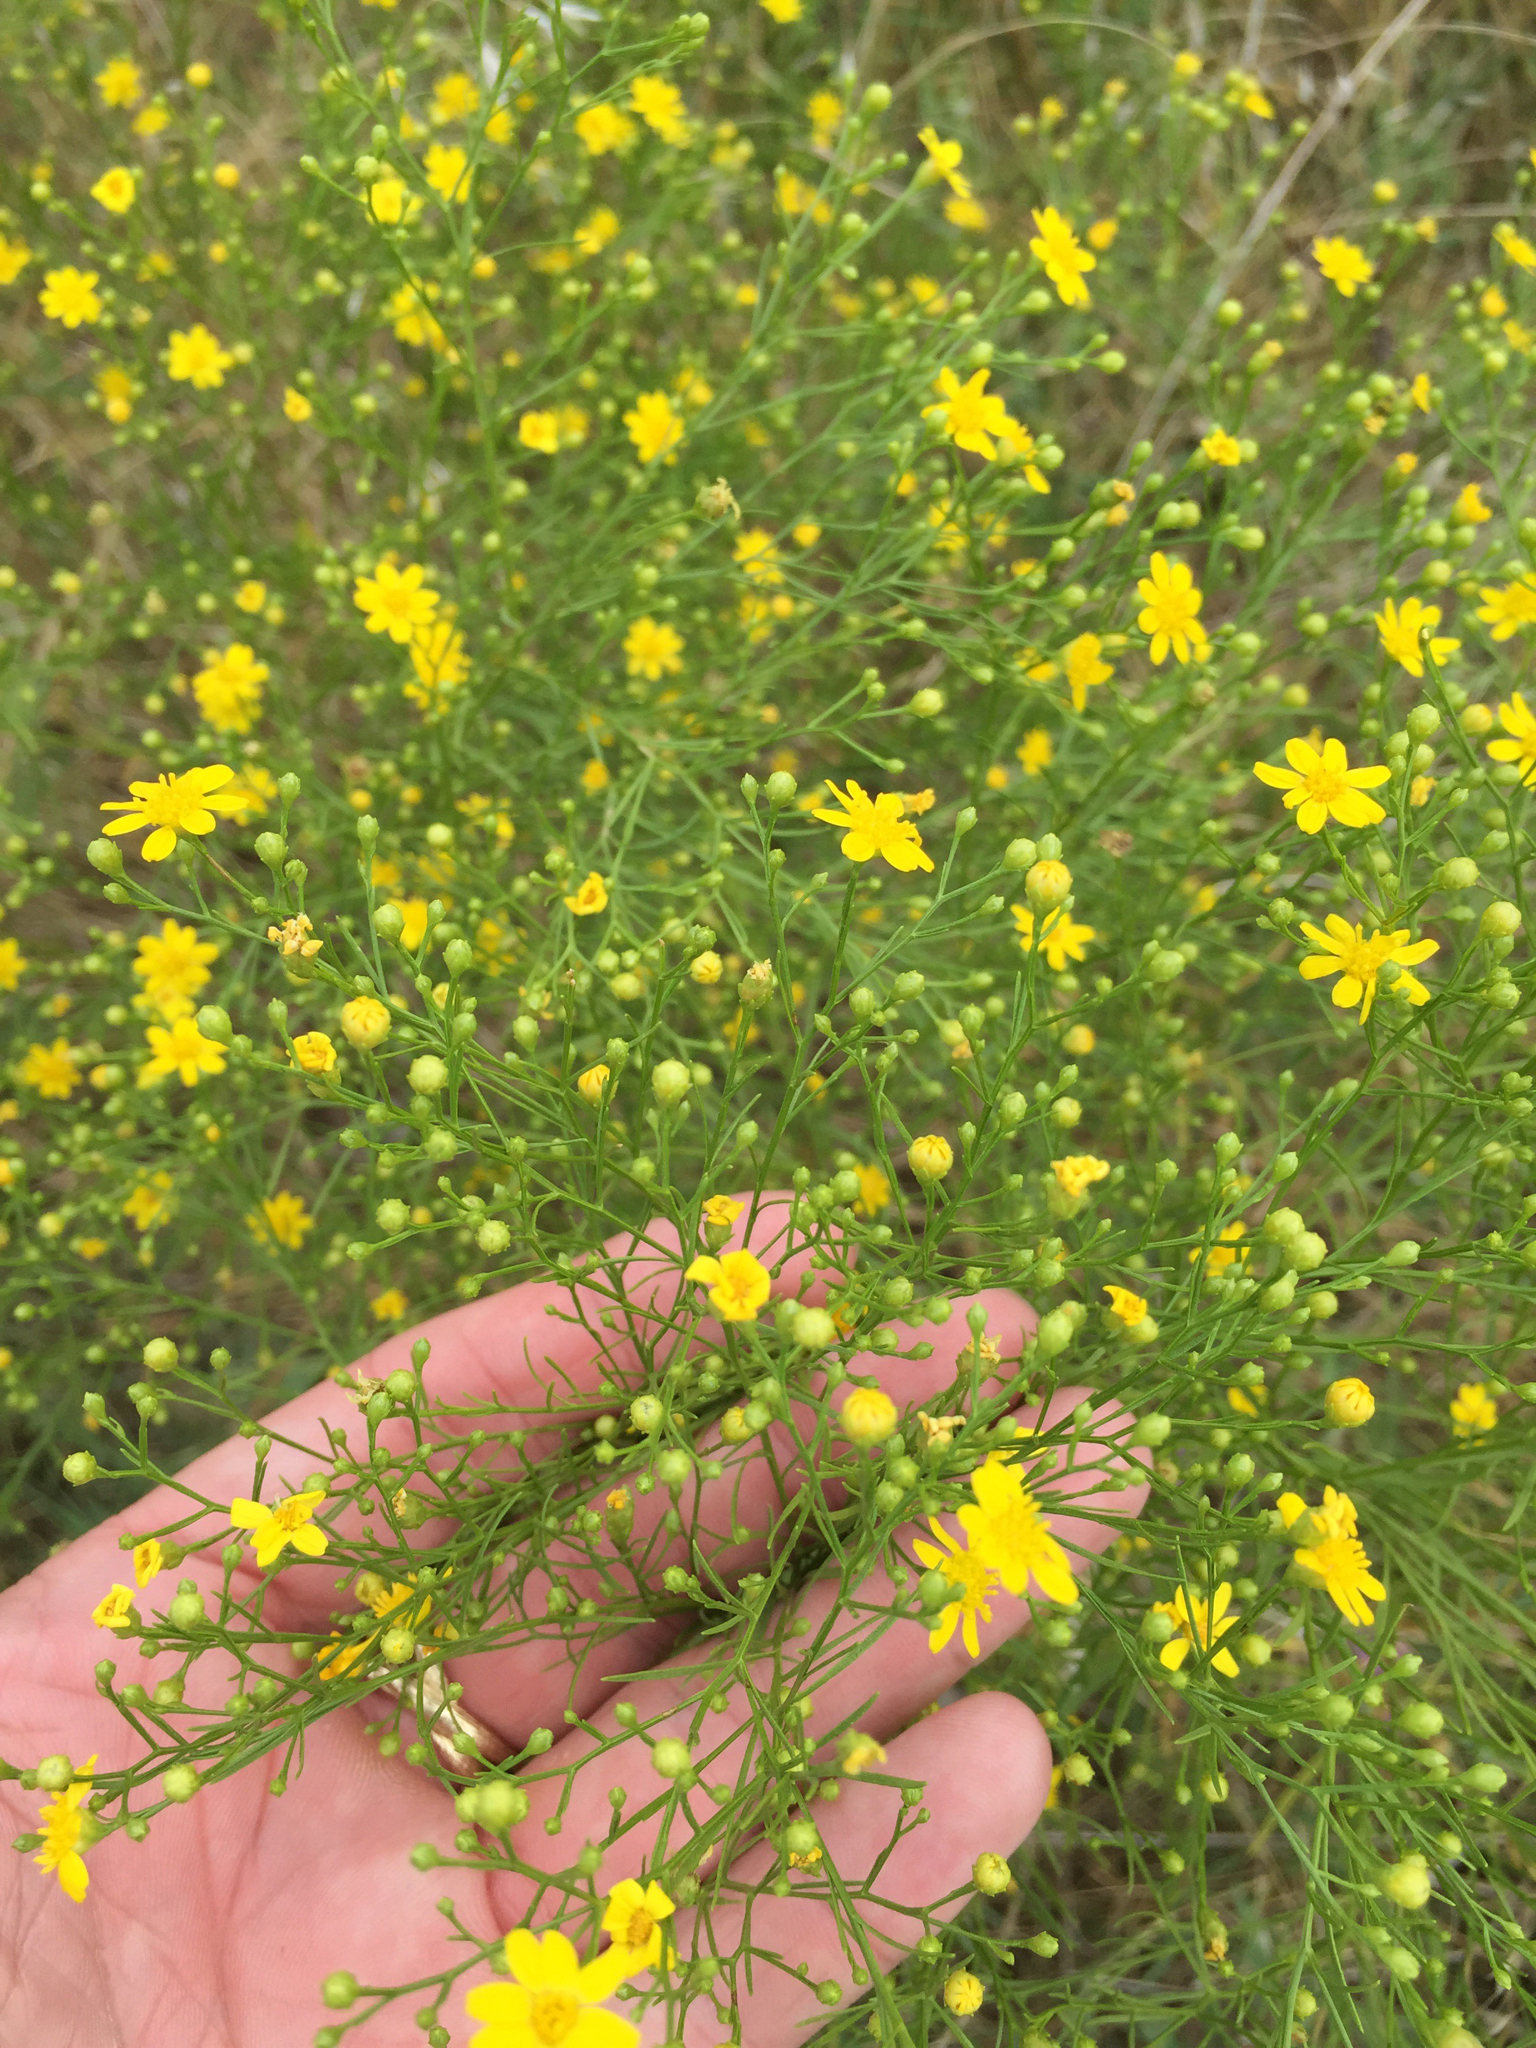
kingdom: Plantae
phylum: Tracheophyta
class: Magnoliopsida
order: Asterales
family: Asteraceae
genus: Amphiachyris
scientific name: Amphiachyris dracunculoides
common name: Broomweed
